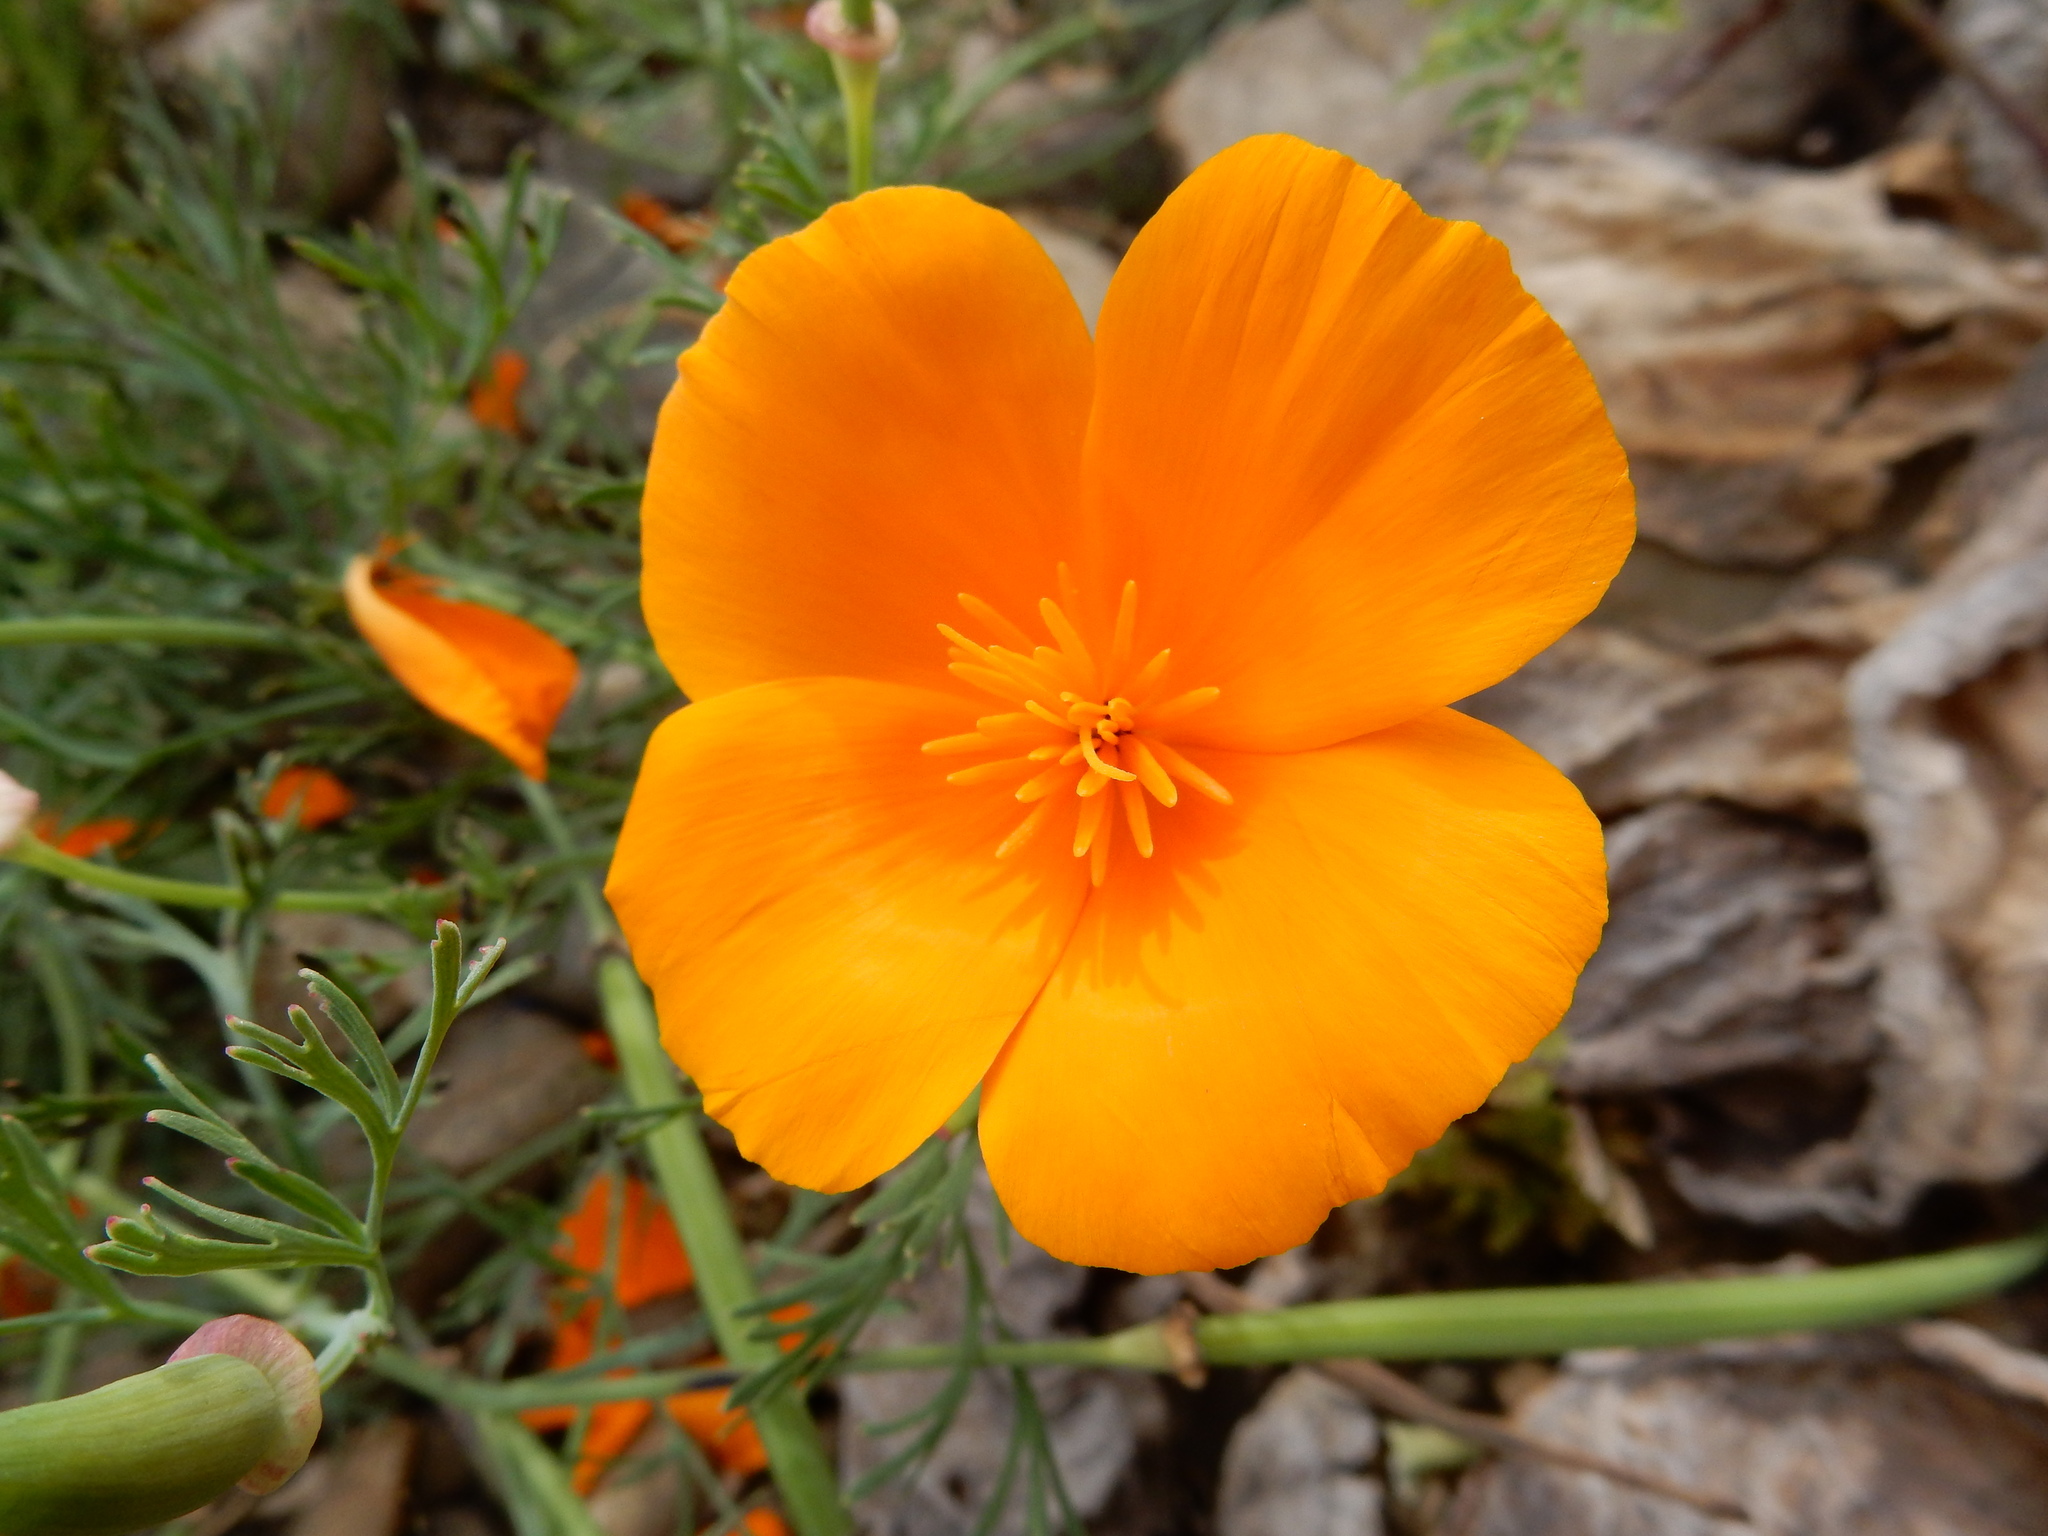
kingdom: Plantae
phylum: Tracheophyta
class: Magnoliopsida
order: Ranunculales
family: Papaveraceae
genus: Eschscholzia
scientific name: Eschscholzia californica
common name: California poppy
